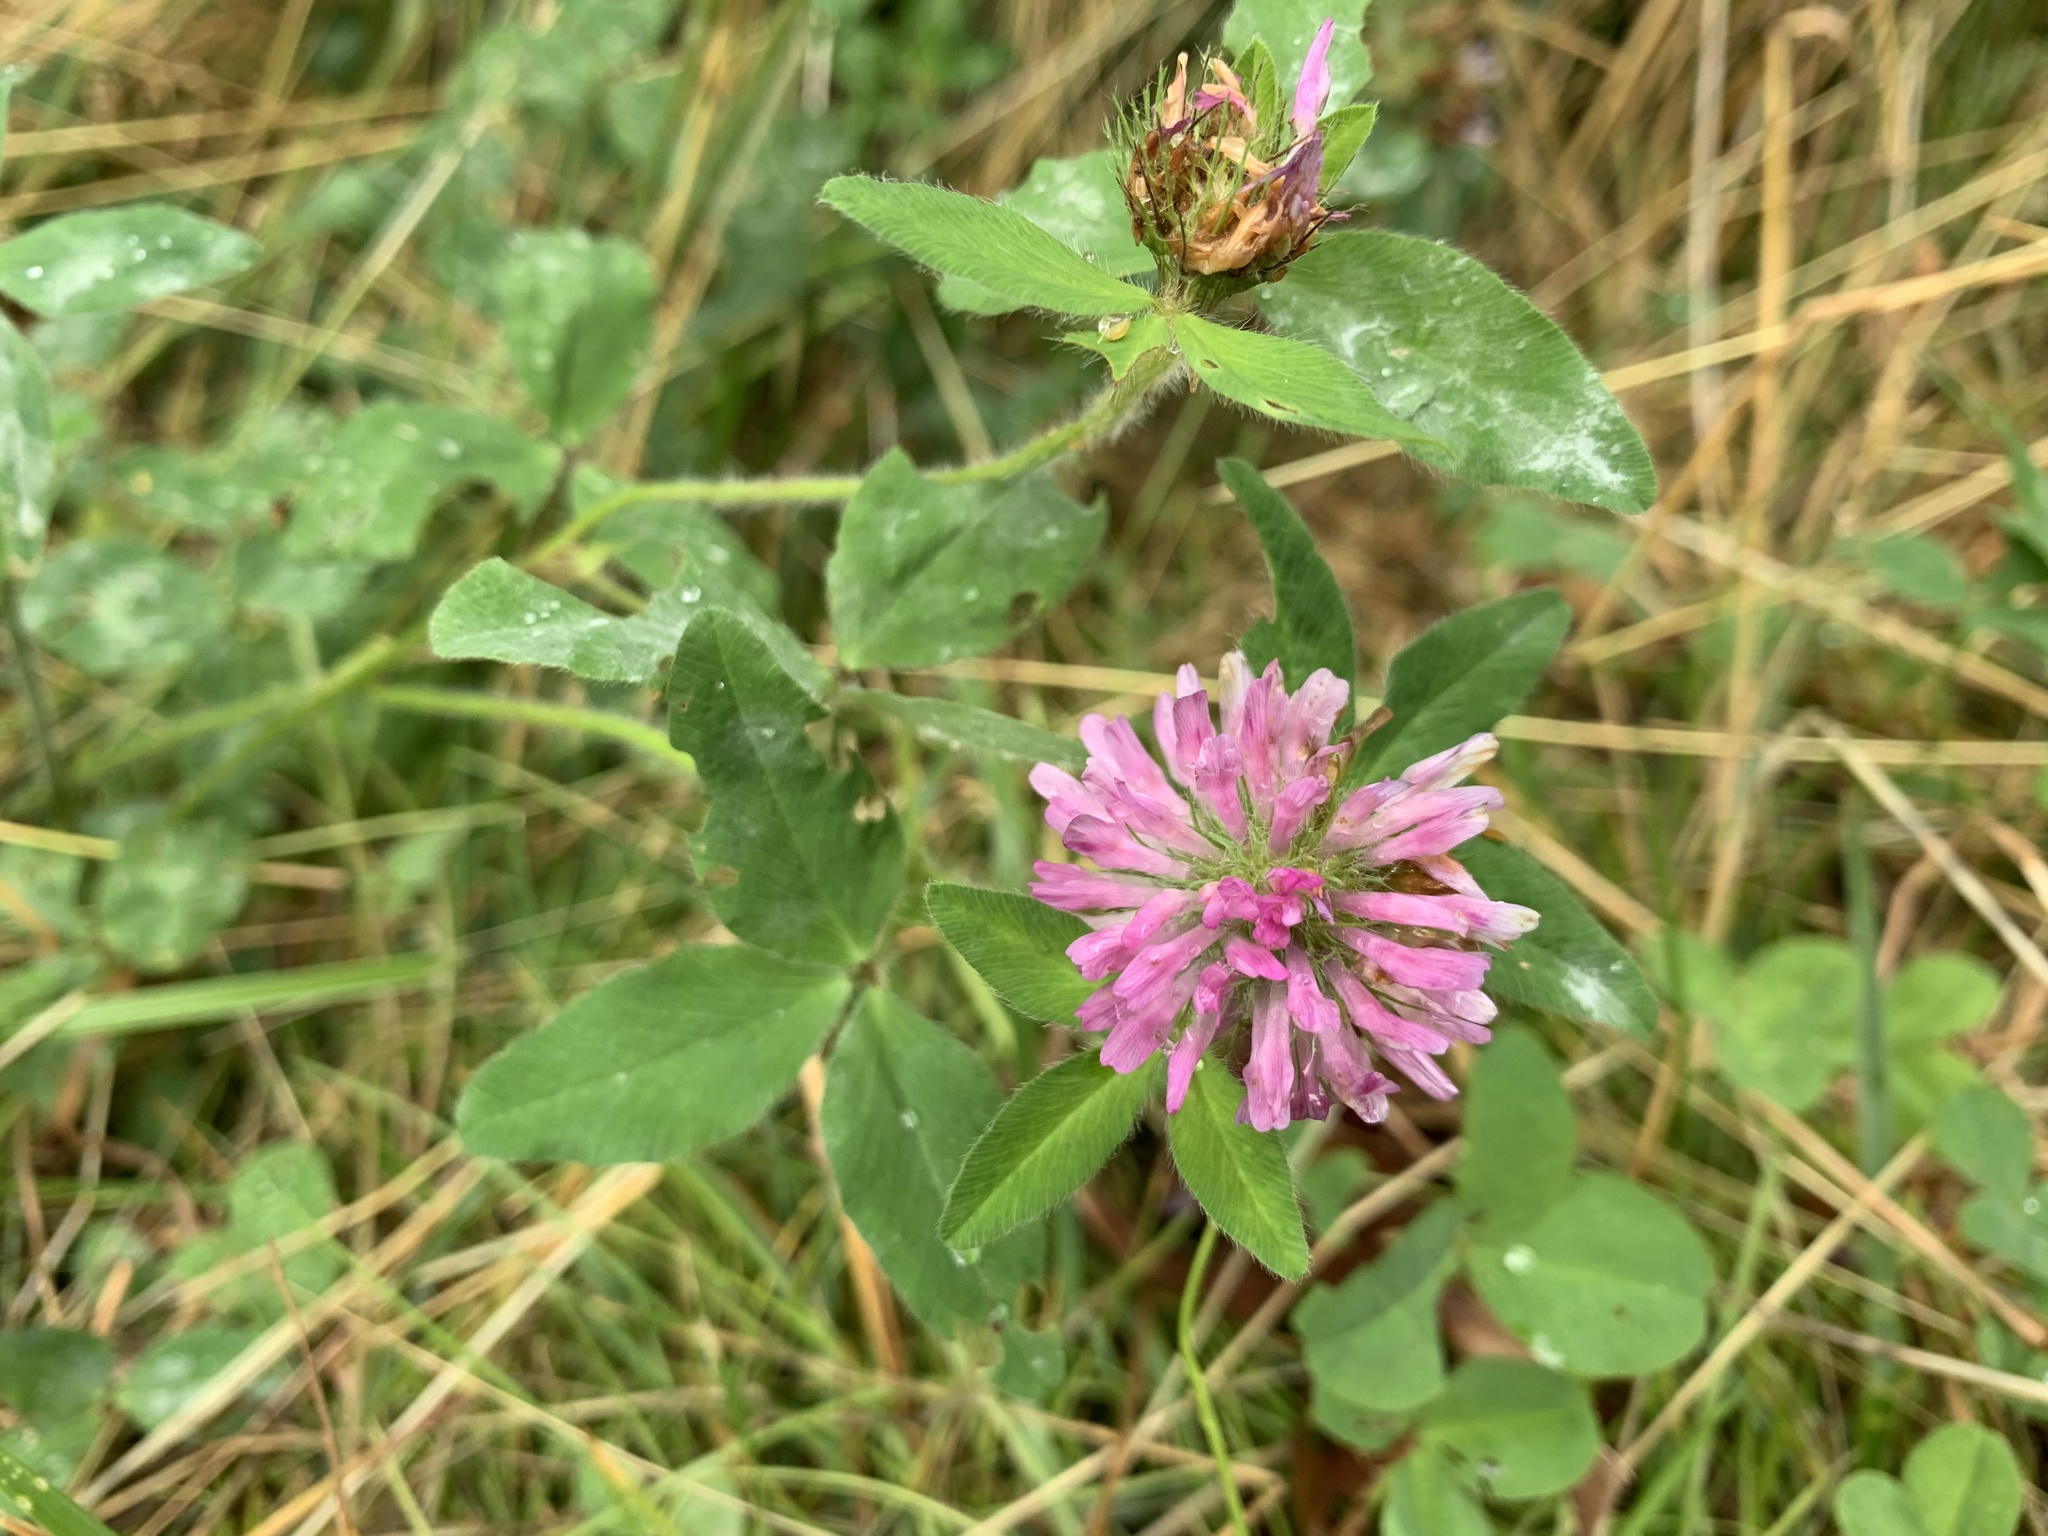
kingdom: Plantae
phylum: Tracheophyta
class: Magnoliopsida
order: Fabales
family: Fabaceae
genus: Trifolium
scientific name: Trifolium pratense
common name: Red clover
